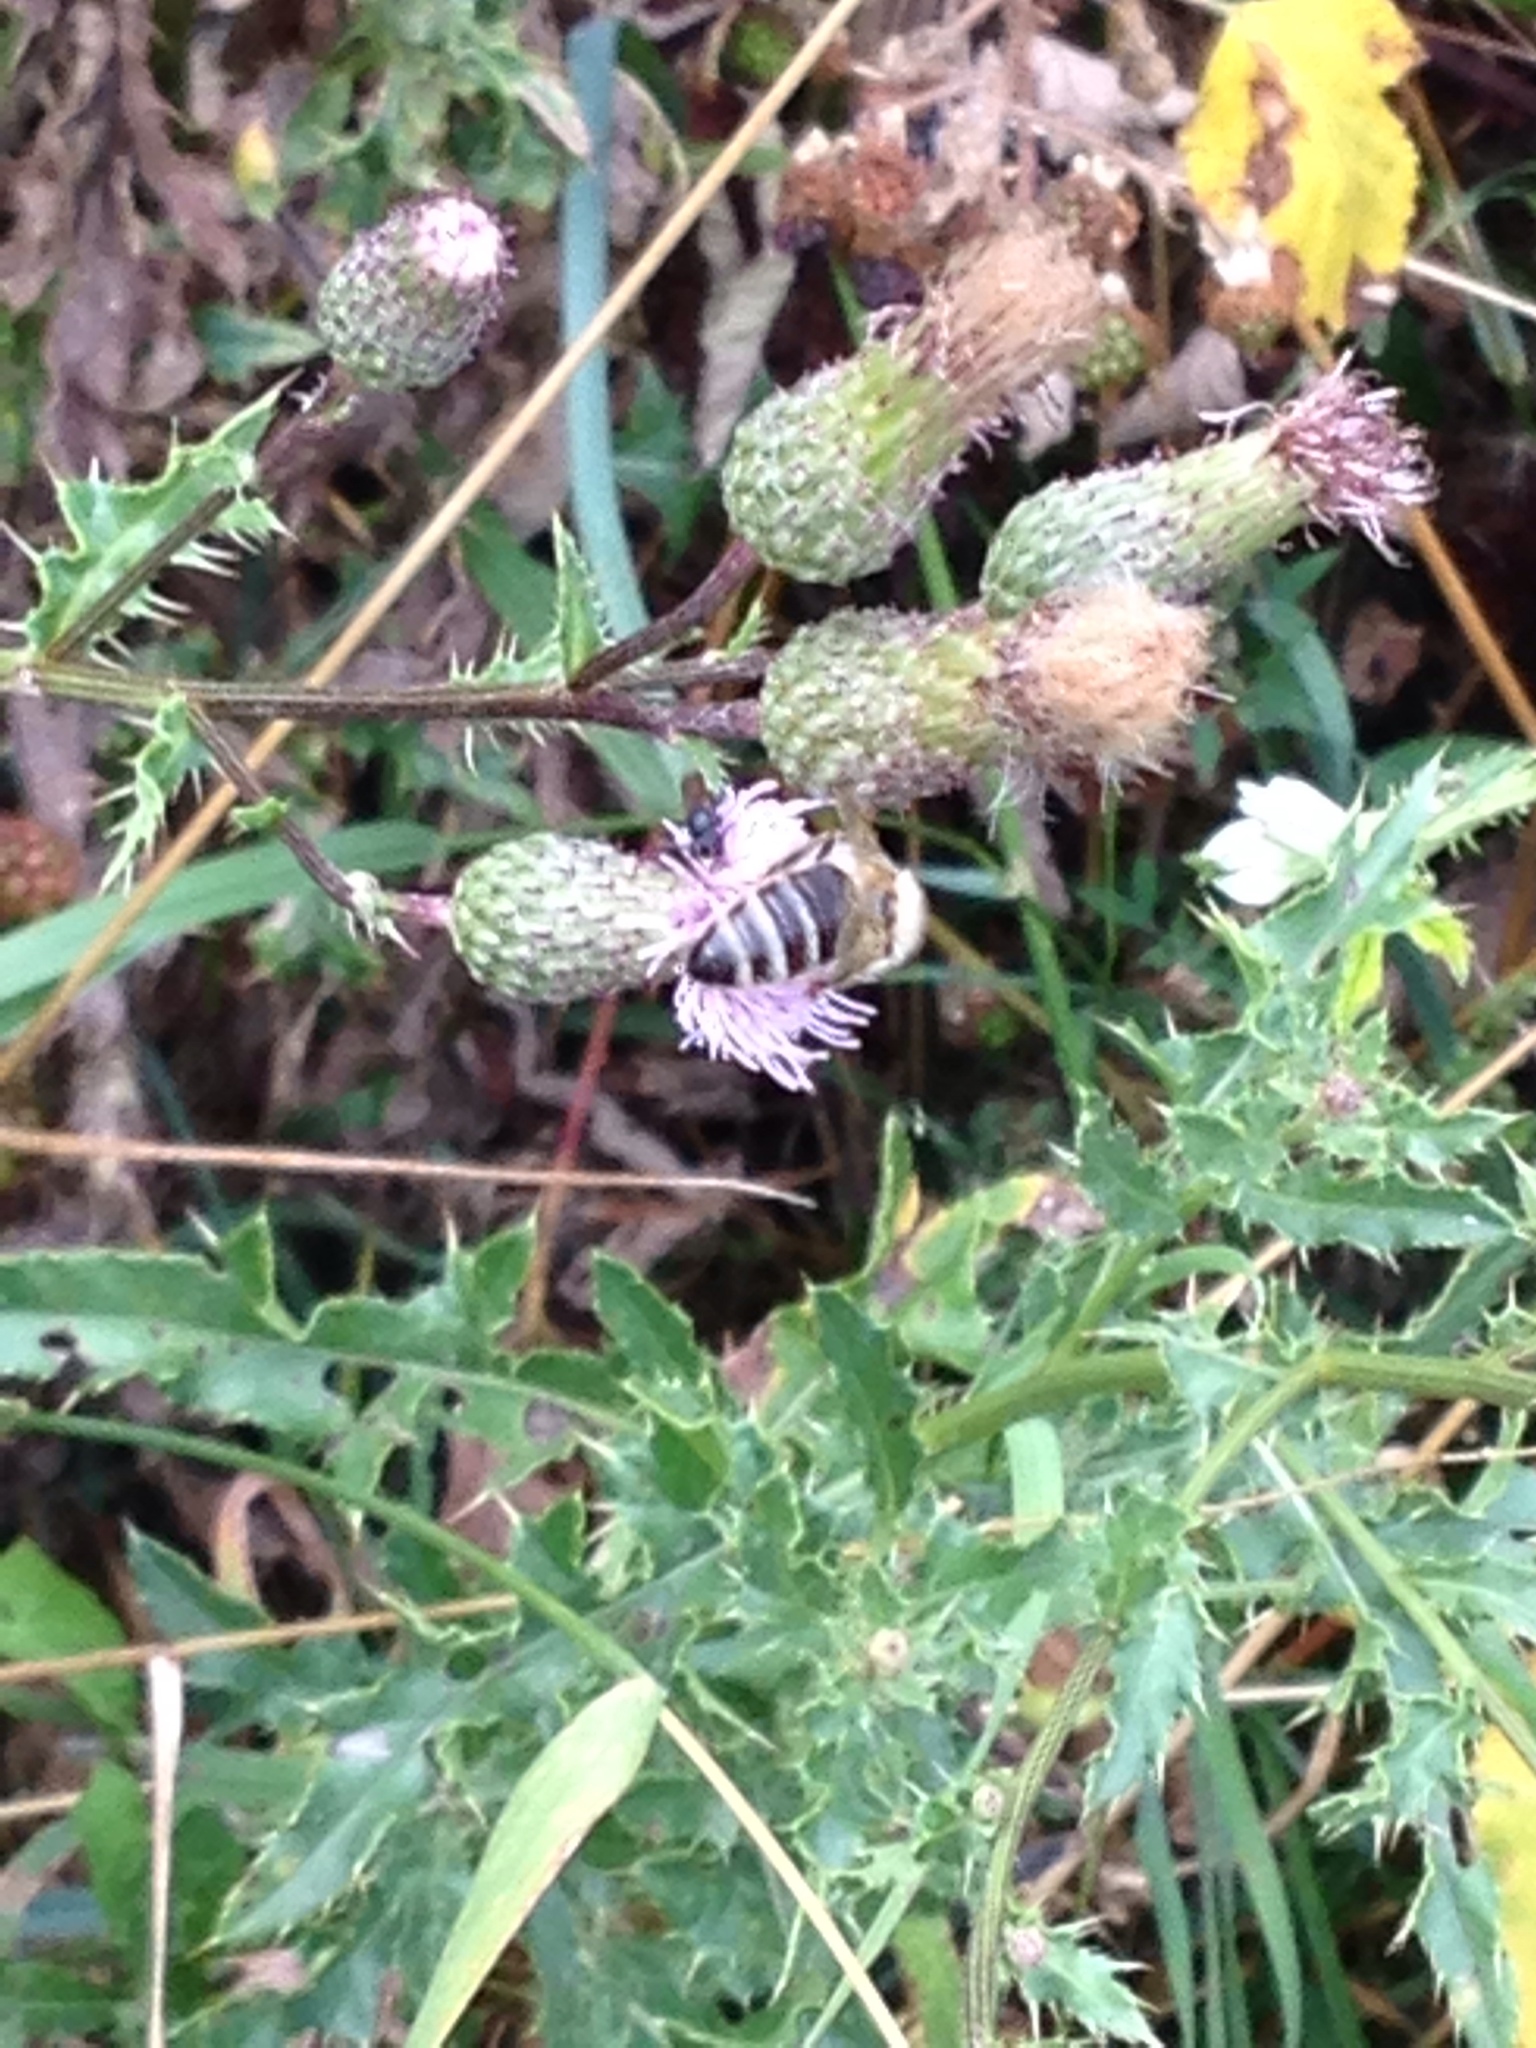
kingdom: Animalia
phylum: Arthropoda
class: Insecta
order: Hymenoptera
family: Apidae
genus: Apis
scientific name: Apis mellifera
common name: Honey bee
